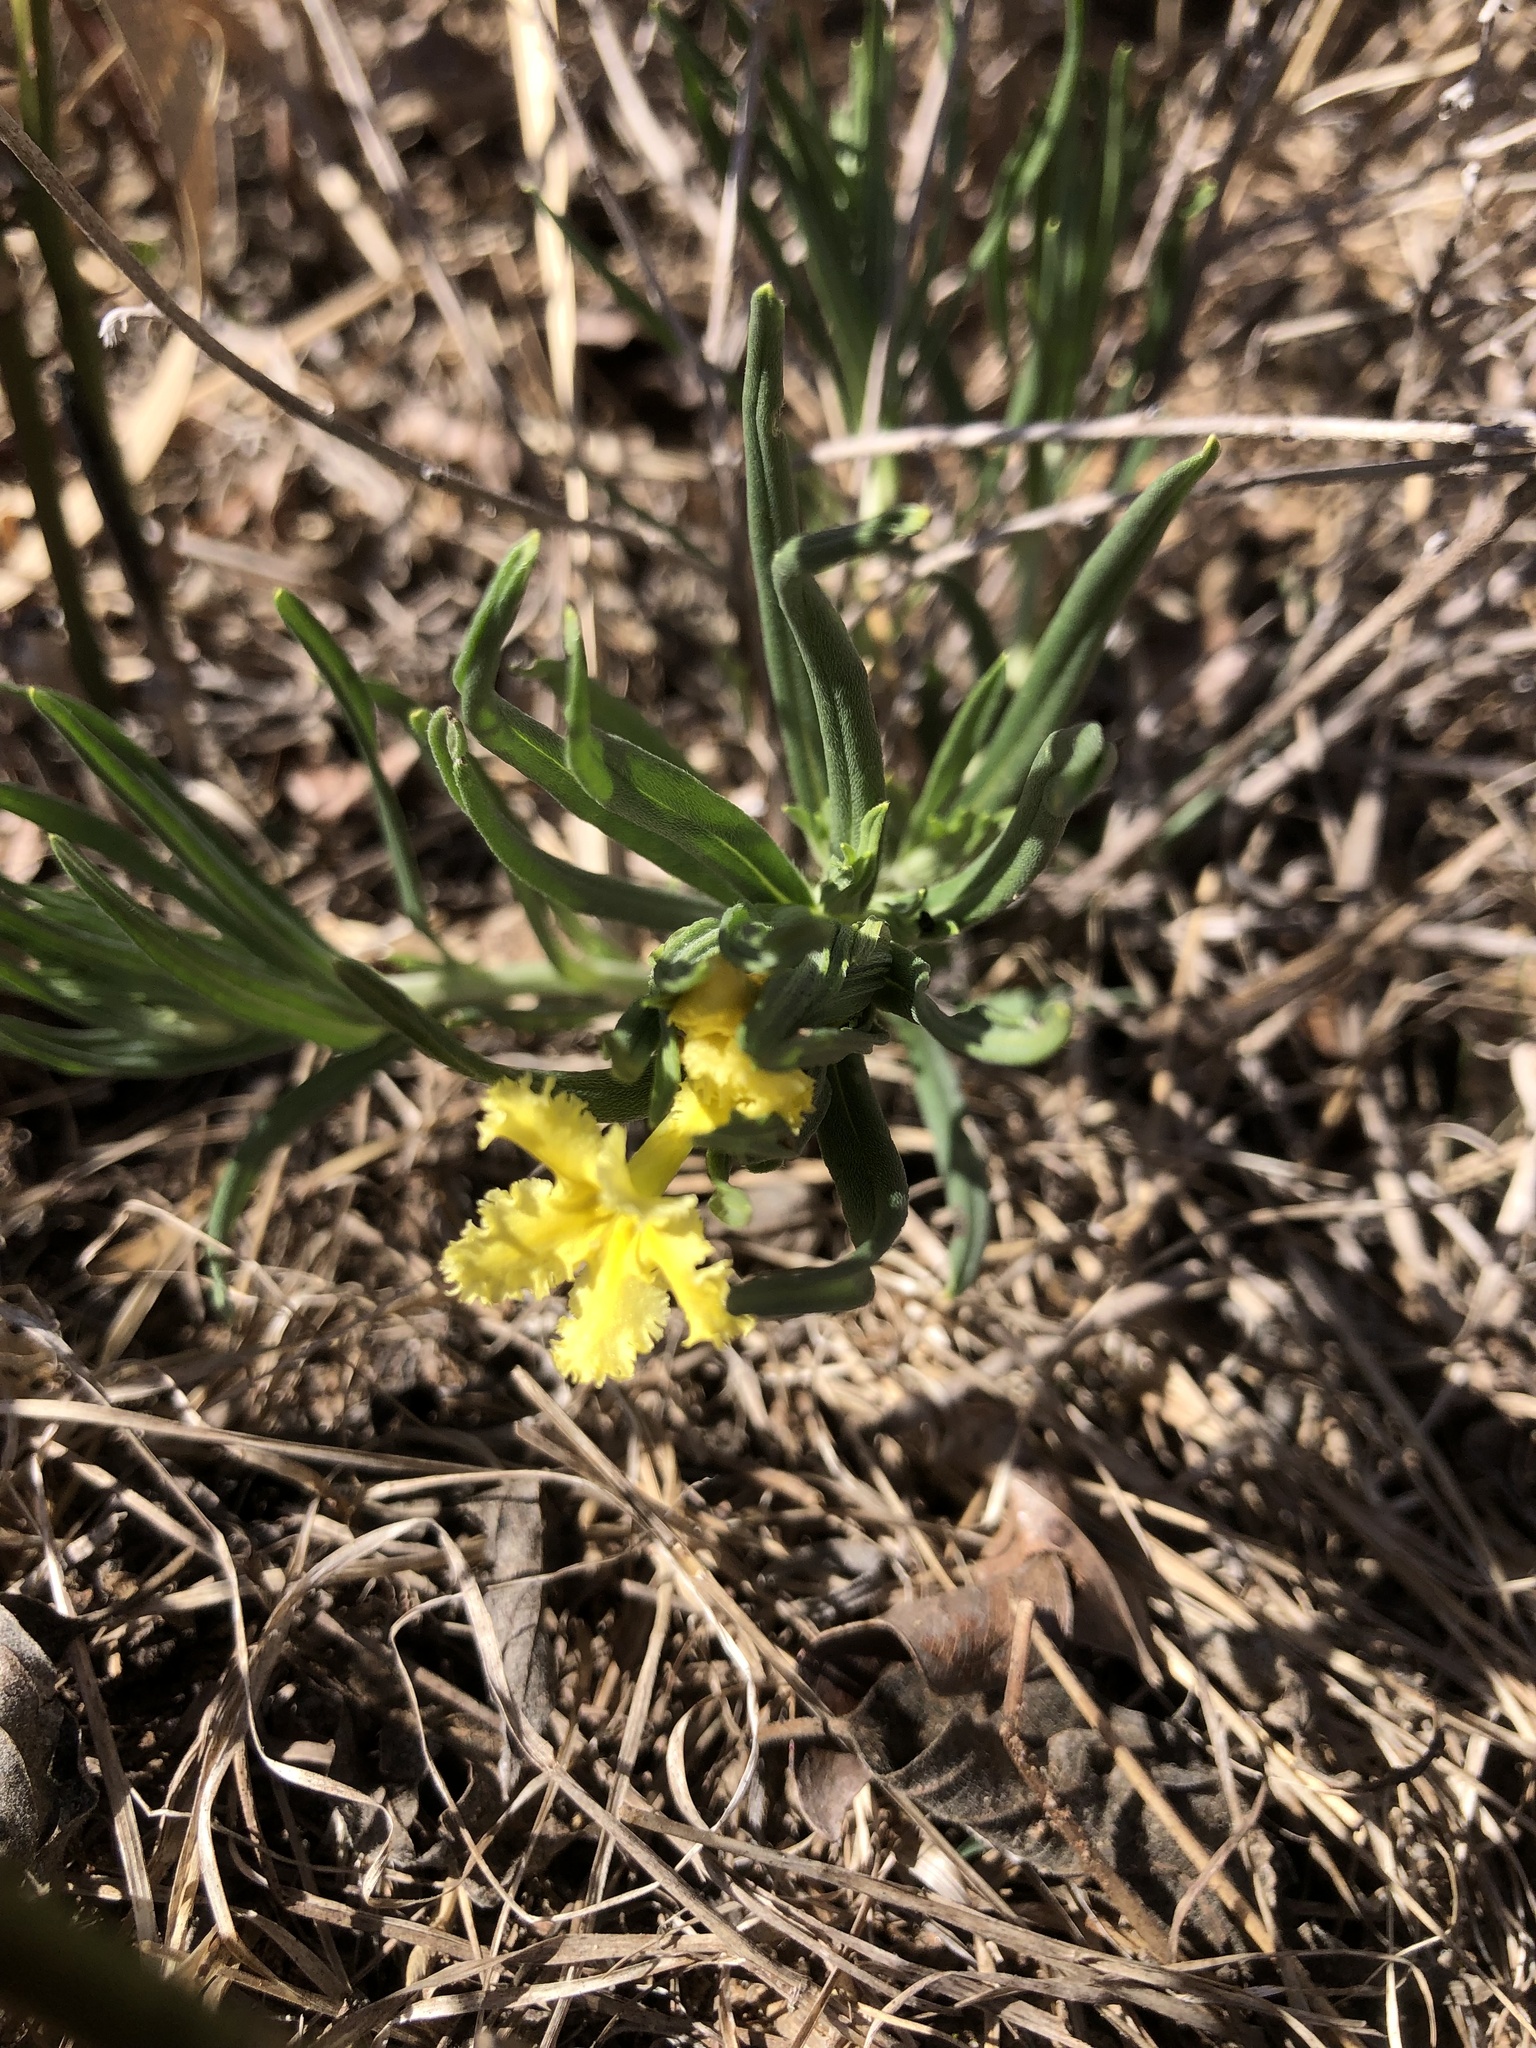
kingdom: Plantae
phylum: Tracheophyta
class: Magnoliopsida
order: Boraginales
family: Boraginaceae
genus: Lithospermum
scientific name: Lithospermum incisum
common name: Fringed gromwell
